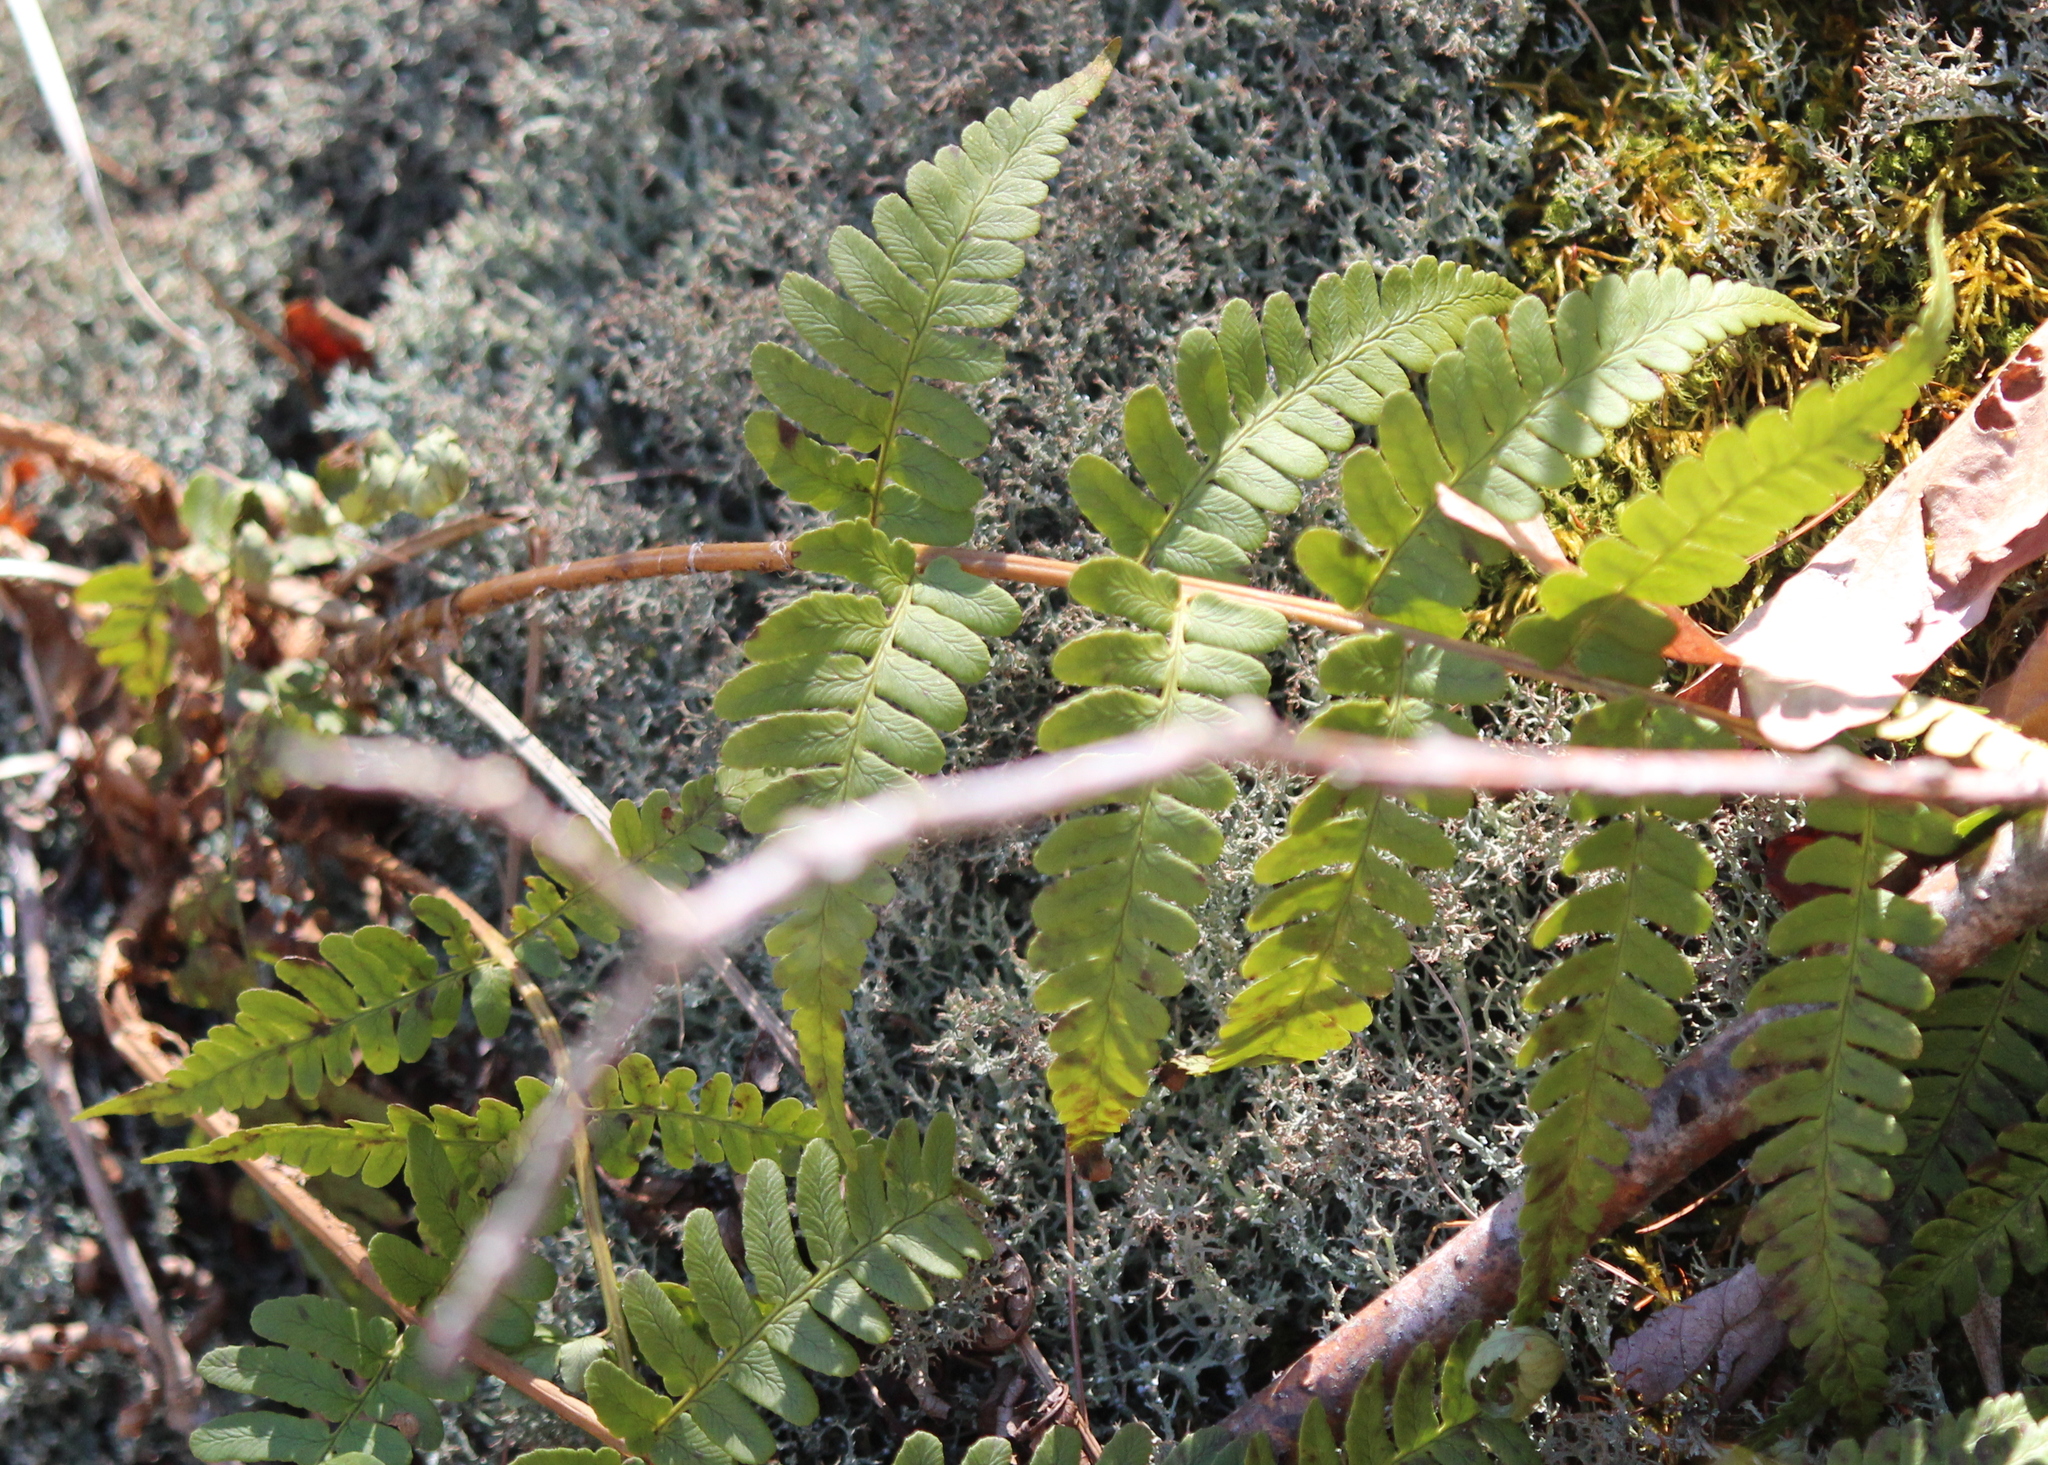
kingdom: Plantae
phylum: Tracheophyta
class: Polypodiopsida
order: Polypodiales
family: Dryopteridaceae
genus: Dryopteris
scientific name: Dryopteris marginalis
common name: Marginal wood fern
